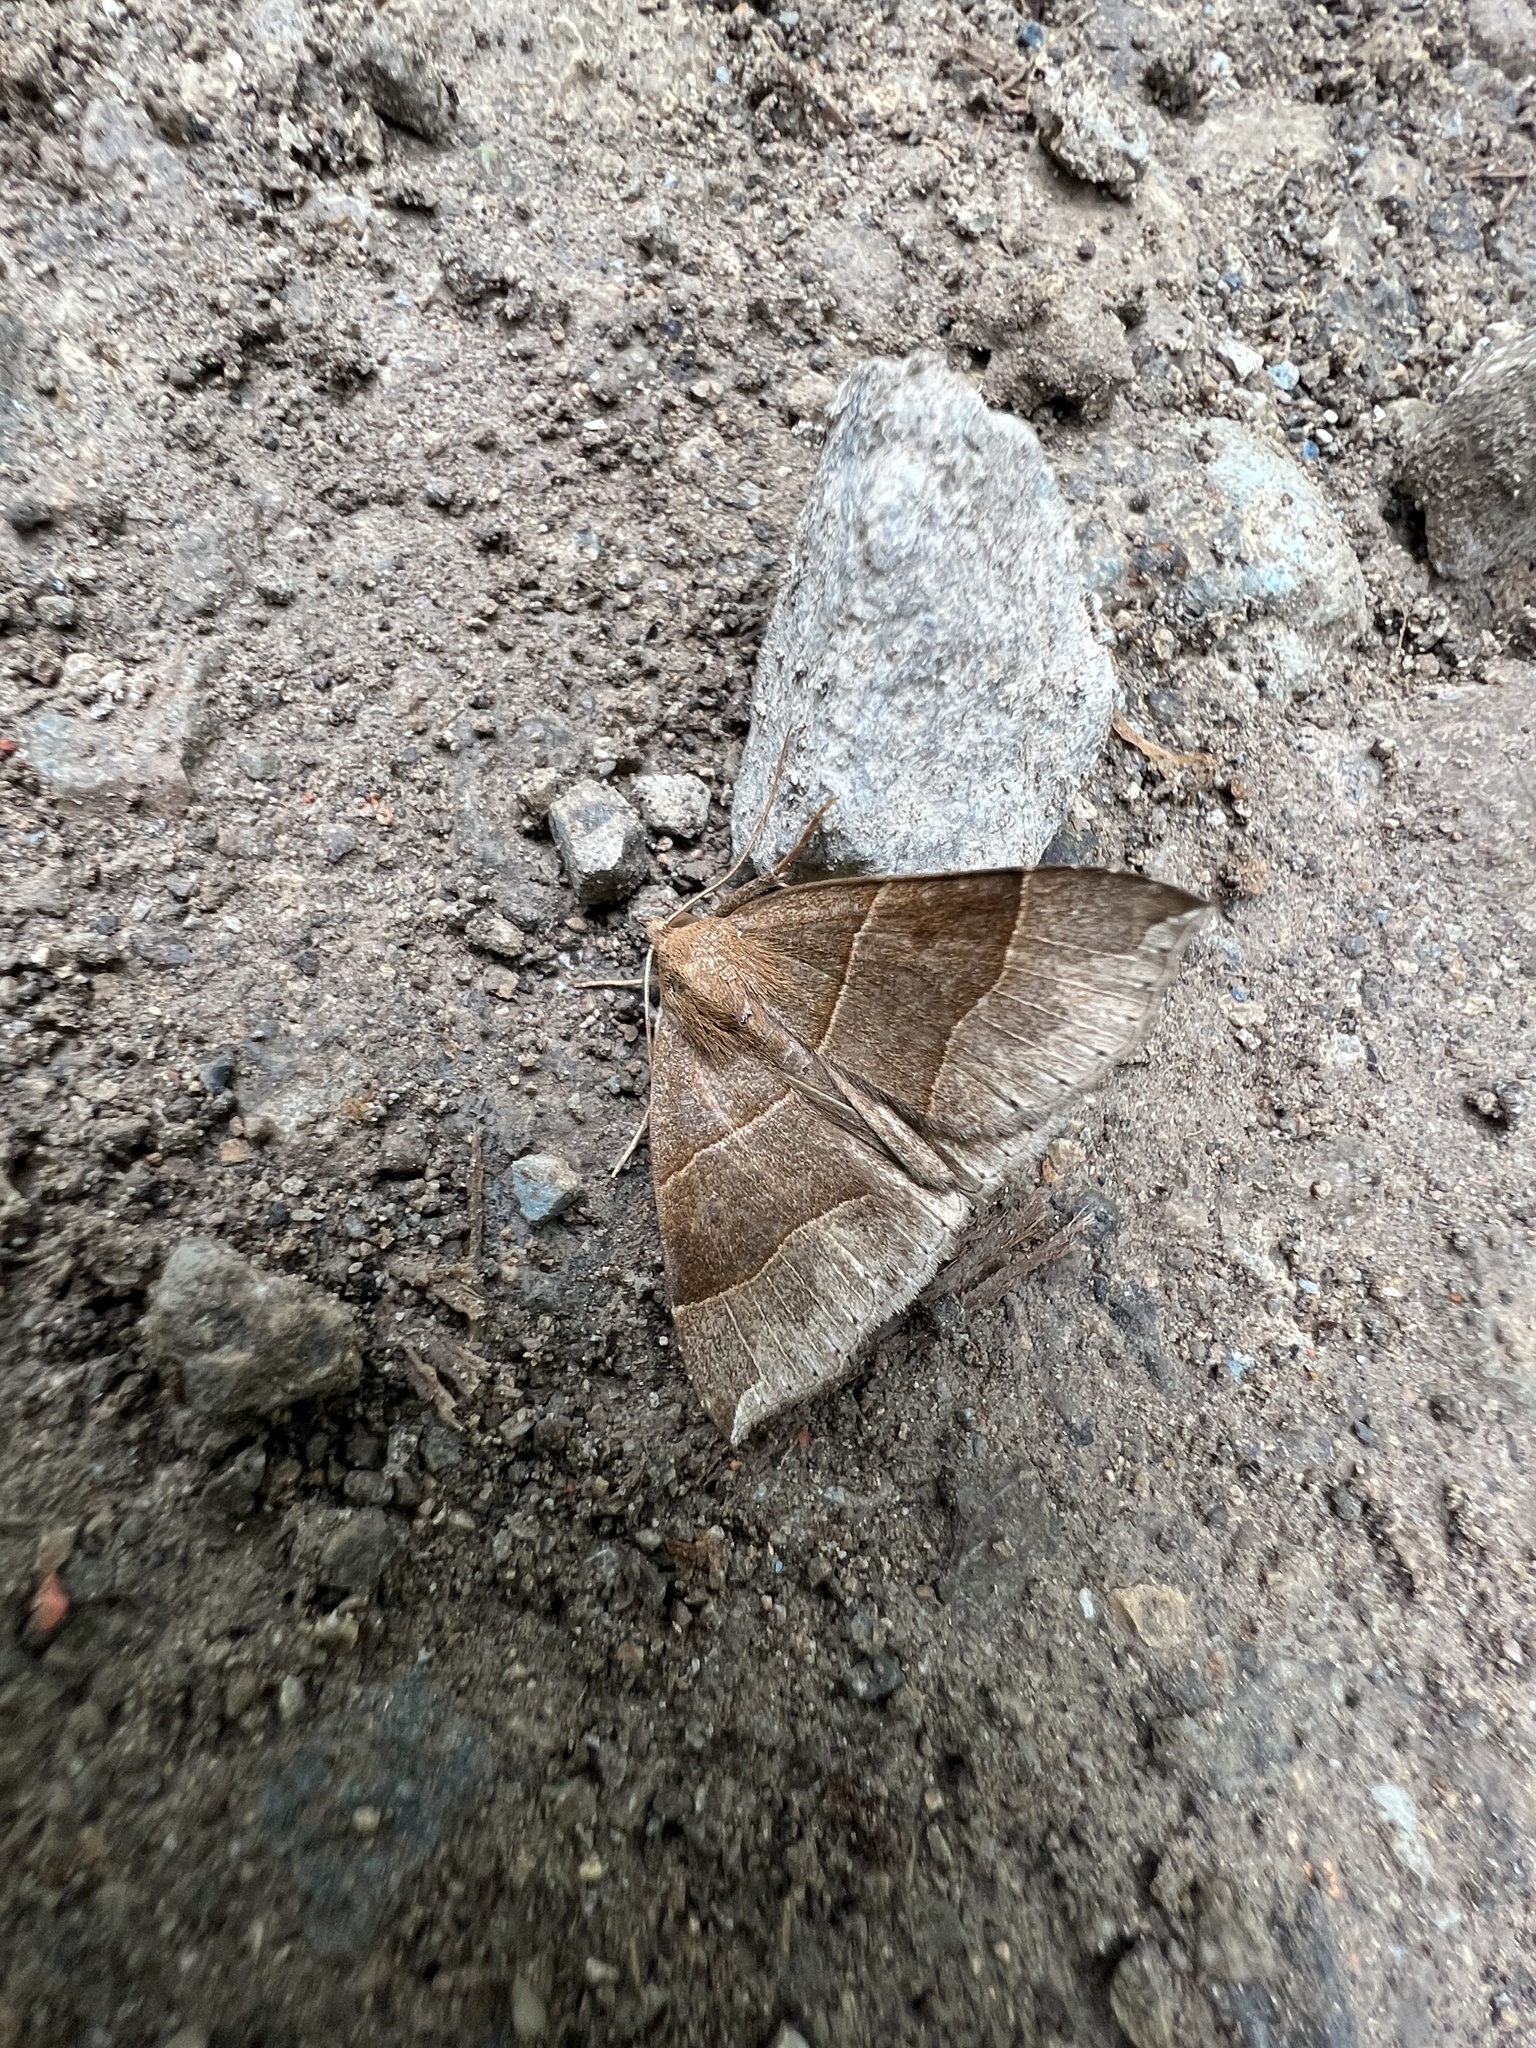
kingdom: Animalia
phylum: Arthropoda
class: Insecta
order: Lepidoptera
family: Erebidae
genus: Parallelia
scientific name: Parallelia bistriaris
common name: Maple looper moth
